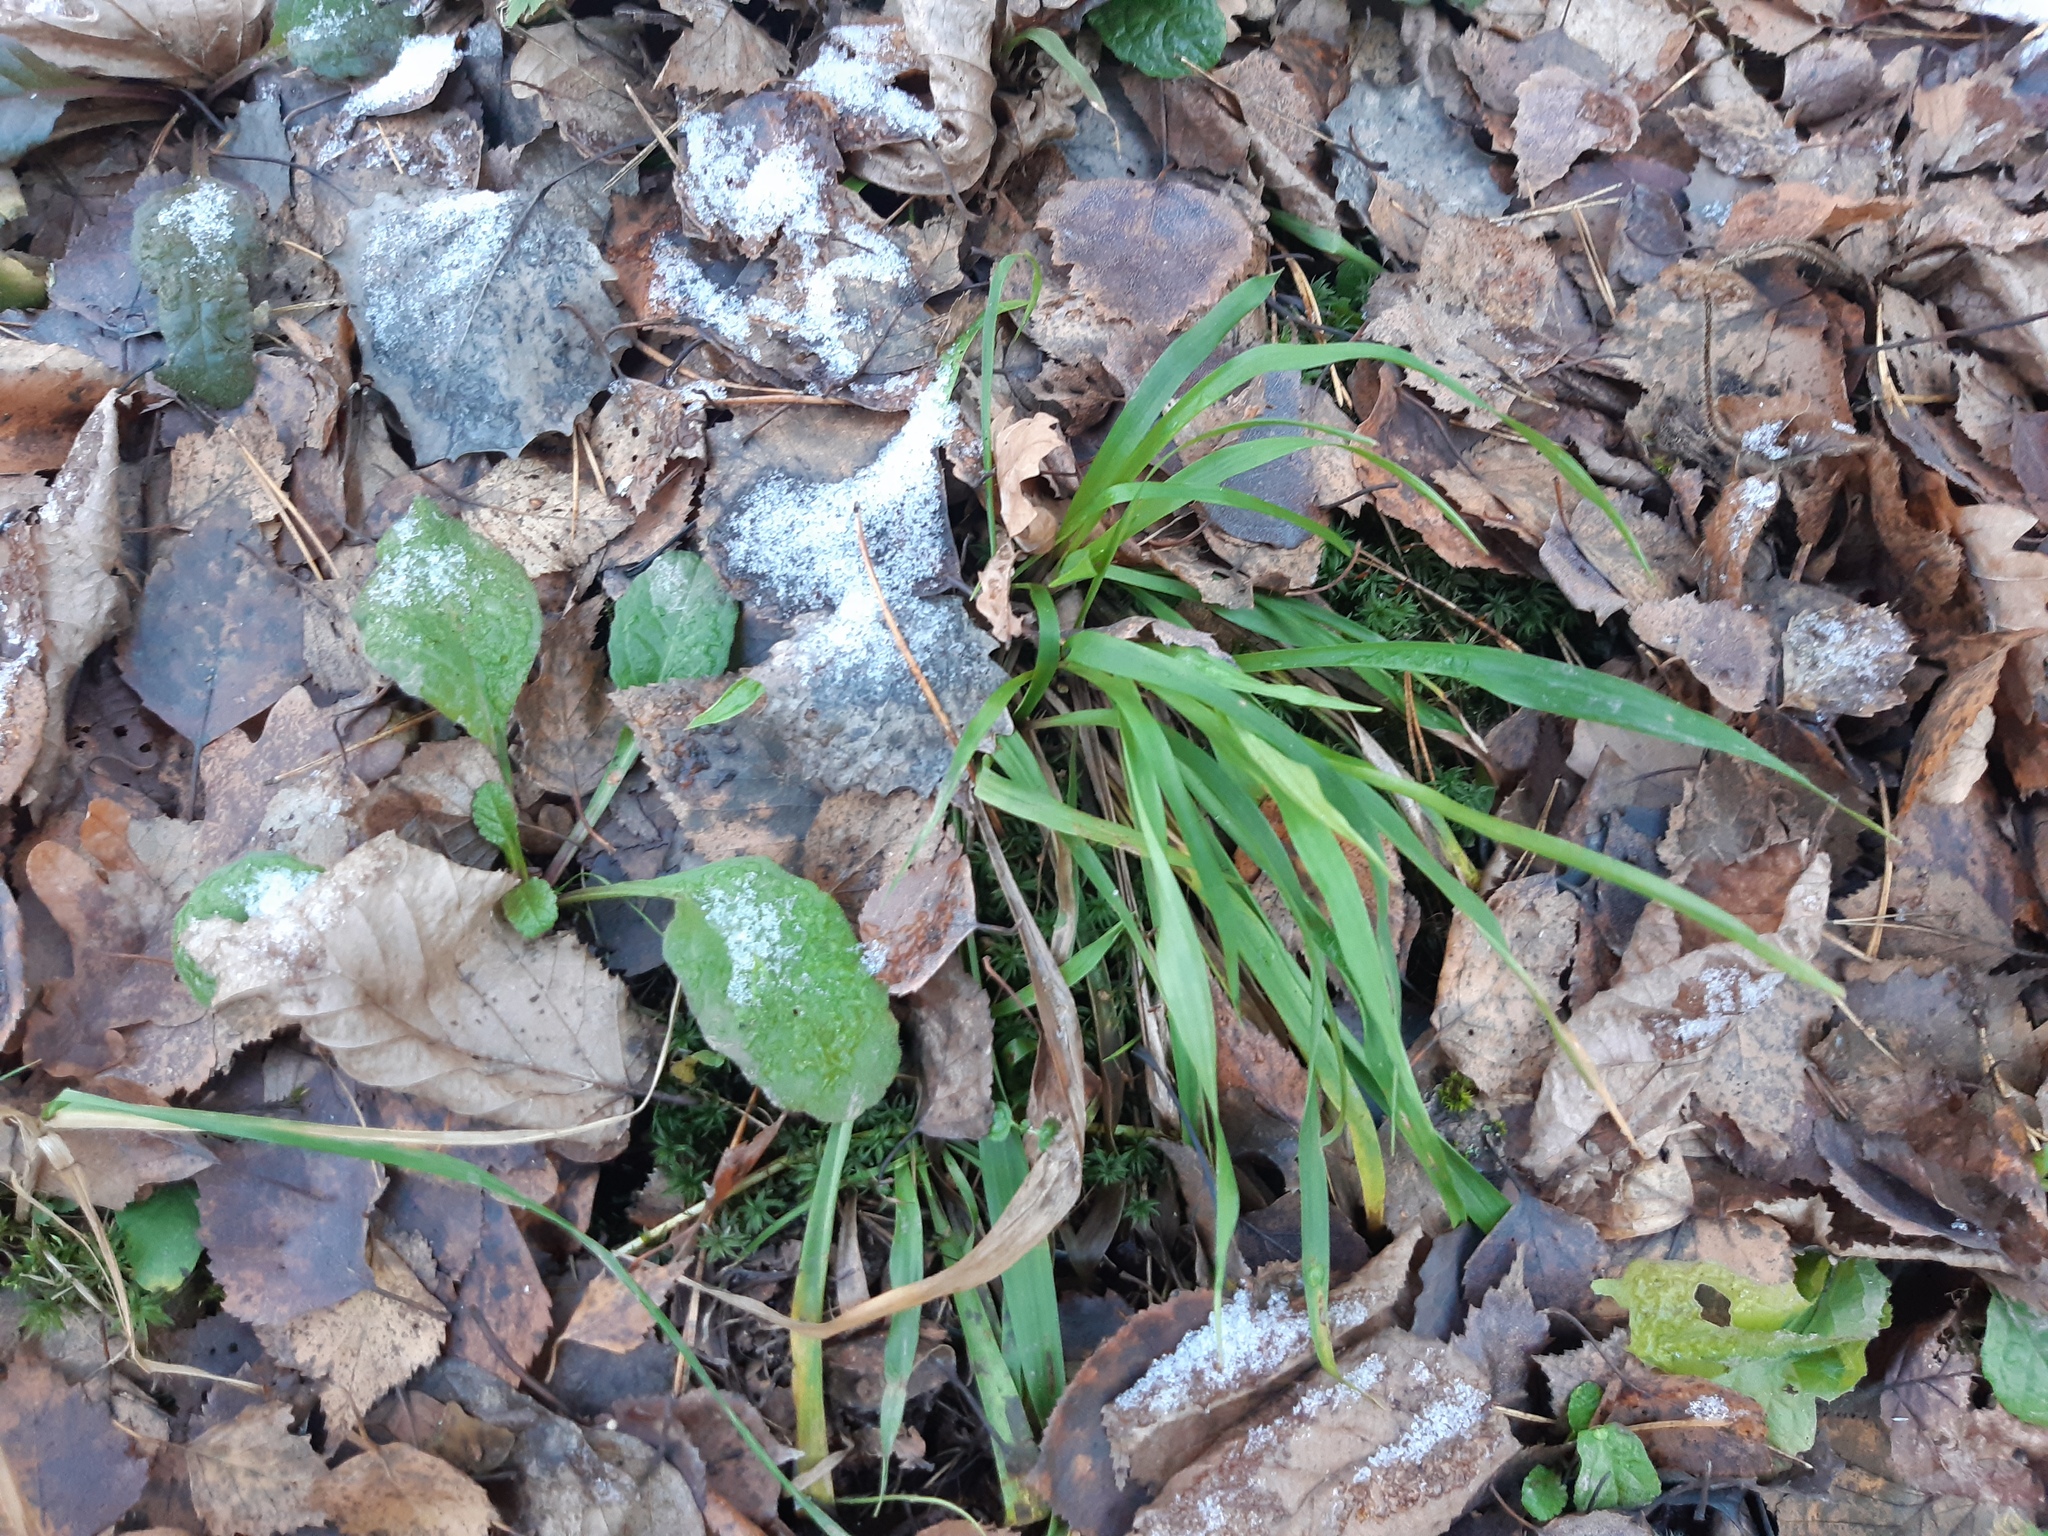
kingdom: Plantae
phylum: Tracheophyta
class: Liliopsida
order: Poales
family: Juncaceae
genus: Luzula
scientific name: Luzula pilosa
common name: Hairy wood-rush
